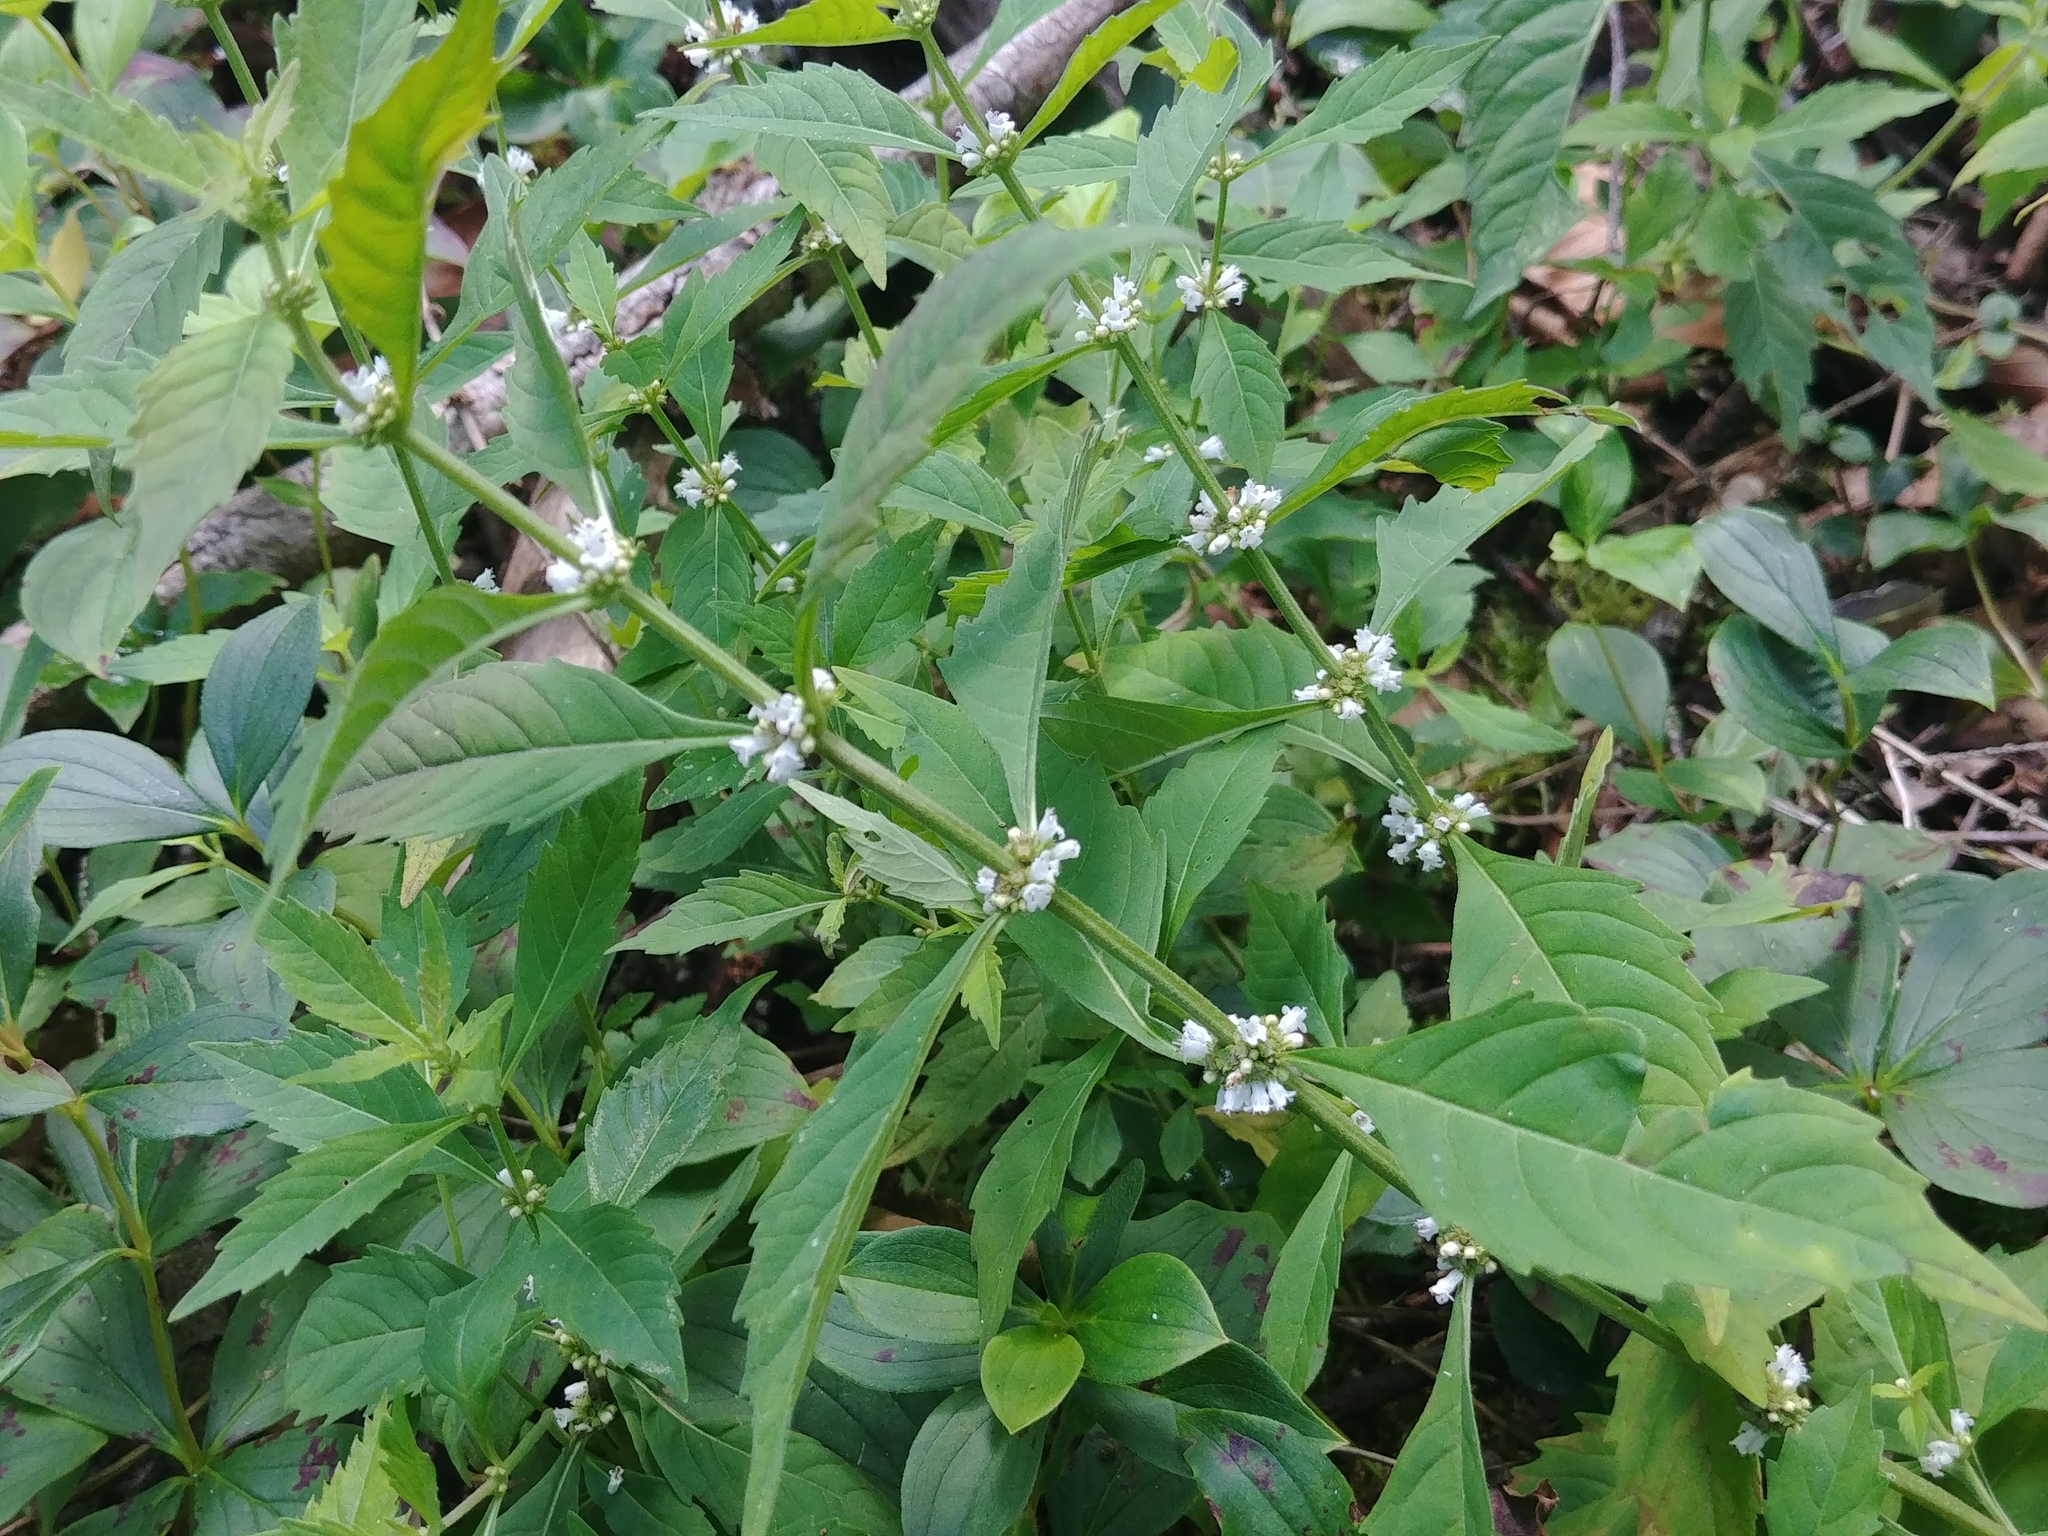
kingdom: Plantae
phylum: Tracheophyta
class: Magnoliopsida
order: Lamiales
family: Lamiaceae
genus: Lycopus
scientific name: Lycopus uniflorus
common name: Northern bugleweed
